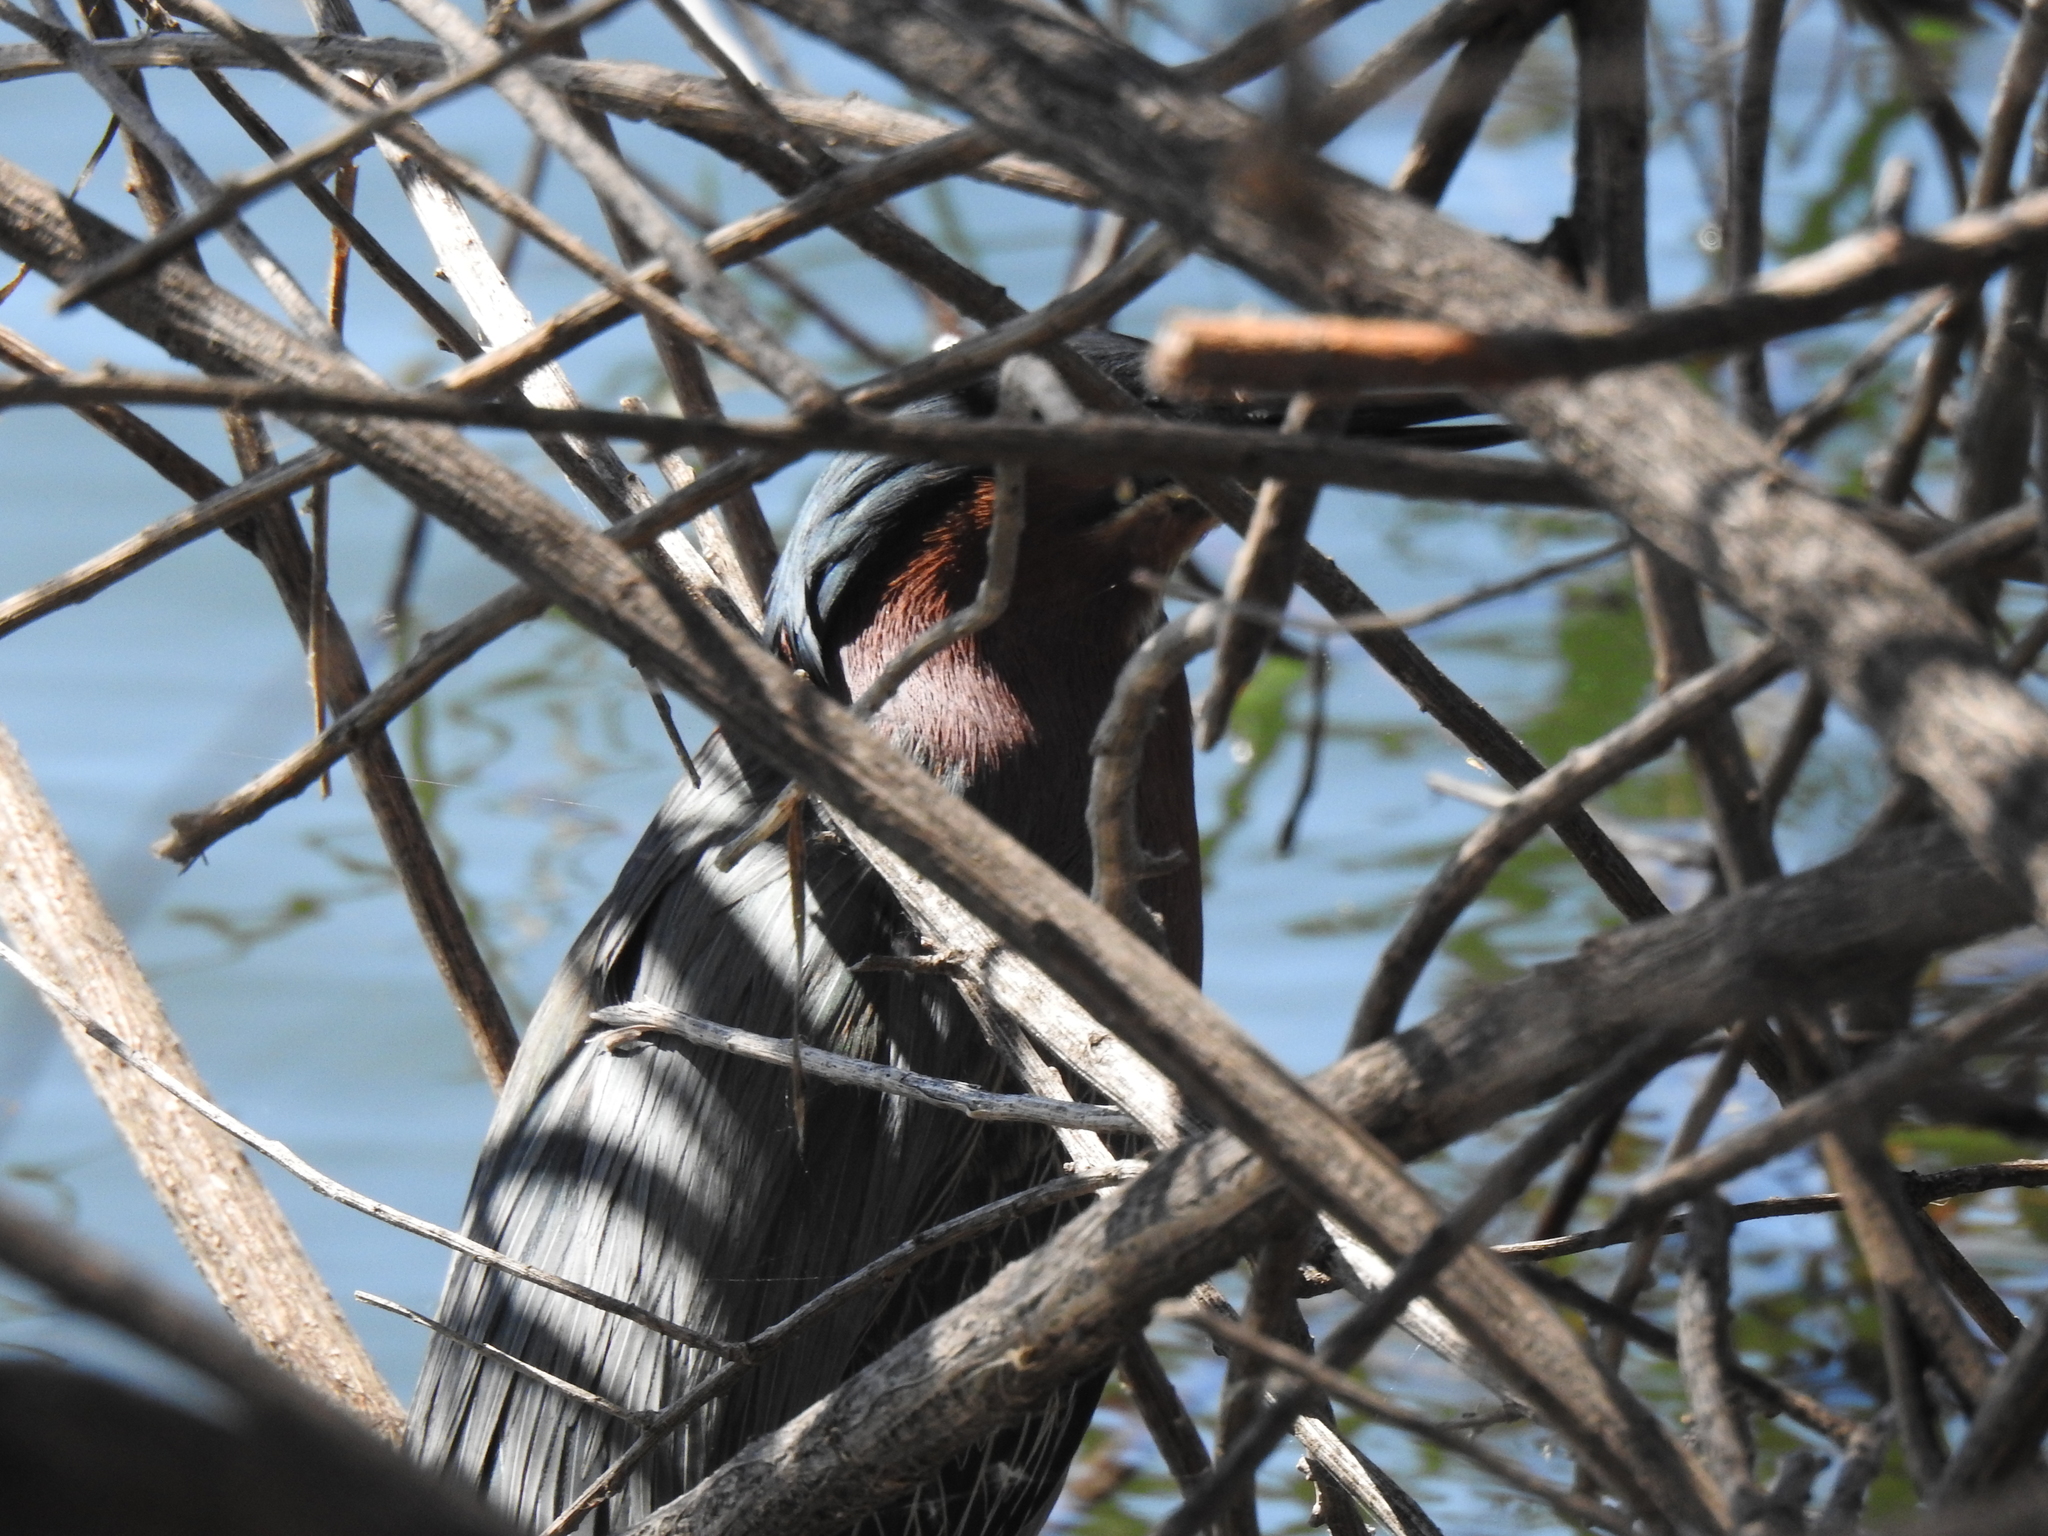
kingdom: Animalia
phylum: Chordata
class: Aves
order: Pelecaniformes
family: Ardeidae
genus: Butorides
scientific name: Butorides virescens
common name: Green heron
